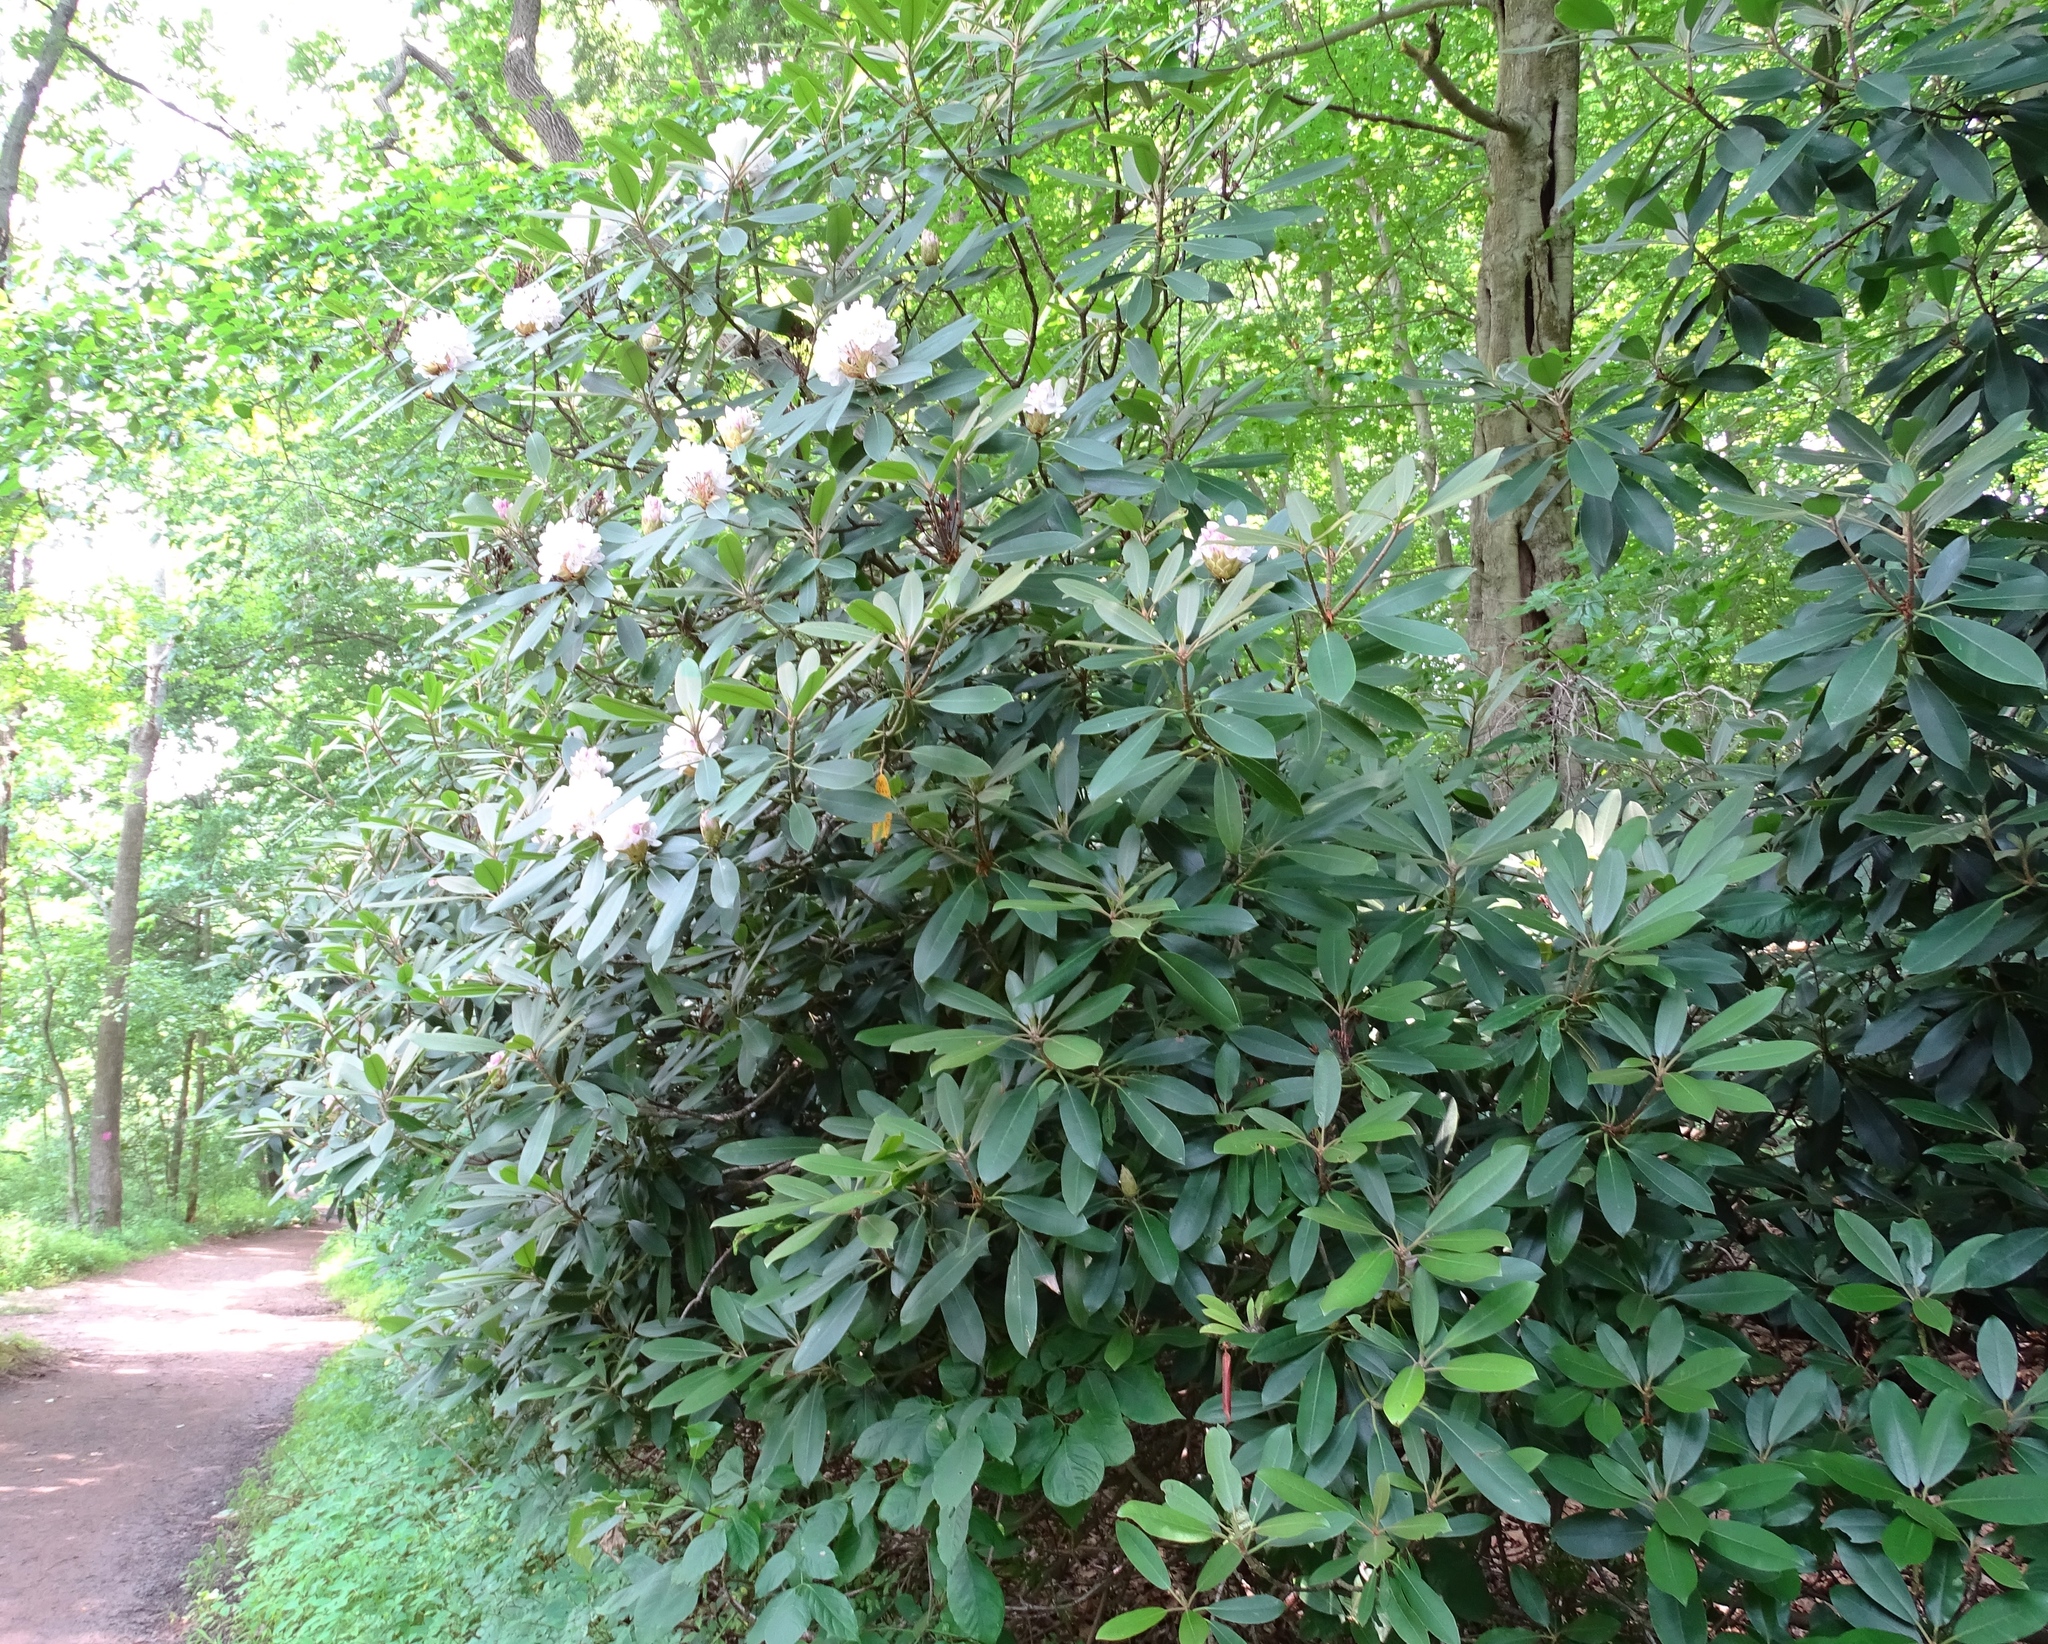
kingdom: Plantae
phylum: Tracheophyta
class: Magnoliopsida
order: Ericales
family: Ericaceae
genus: Rhododendron
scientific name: Rhododendron maximum
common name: Great rhododendron
